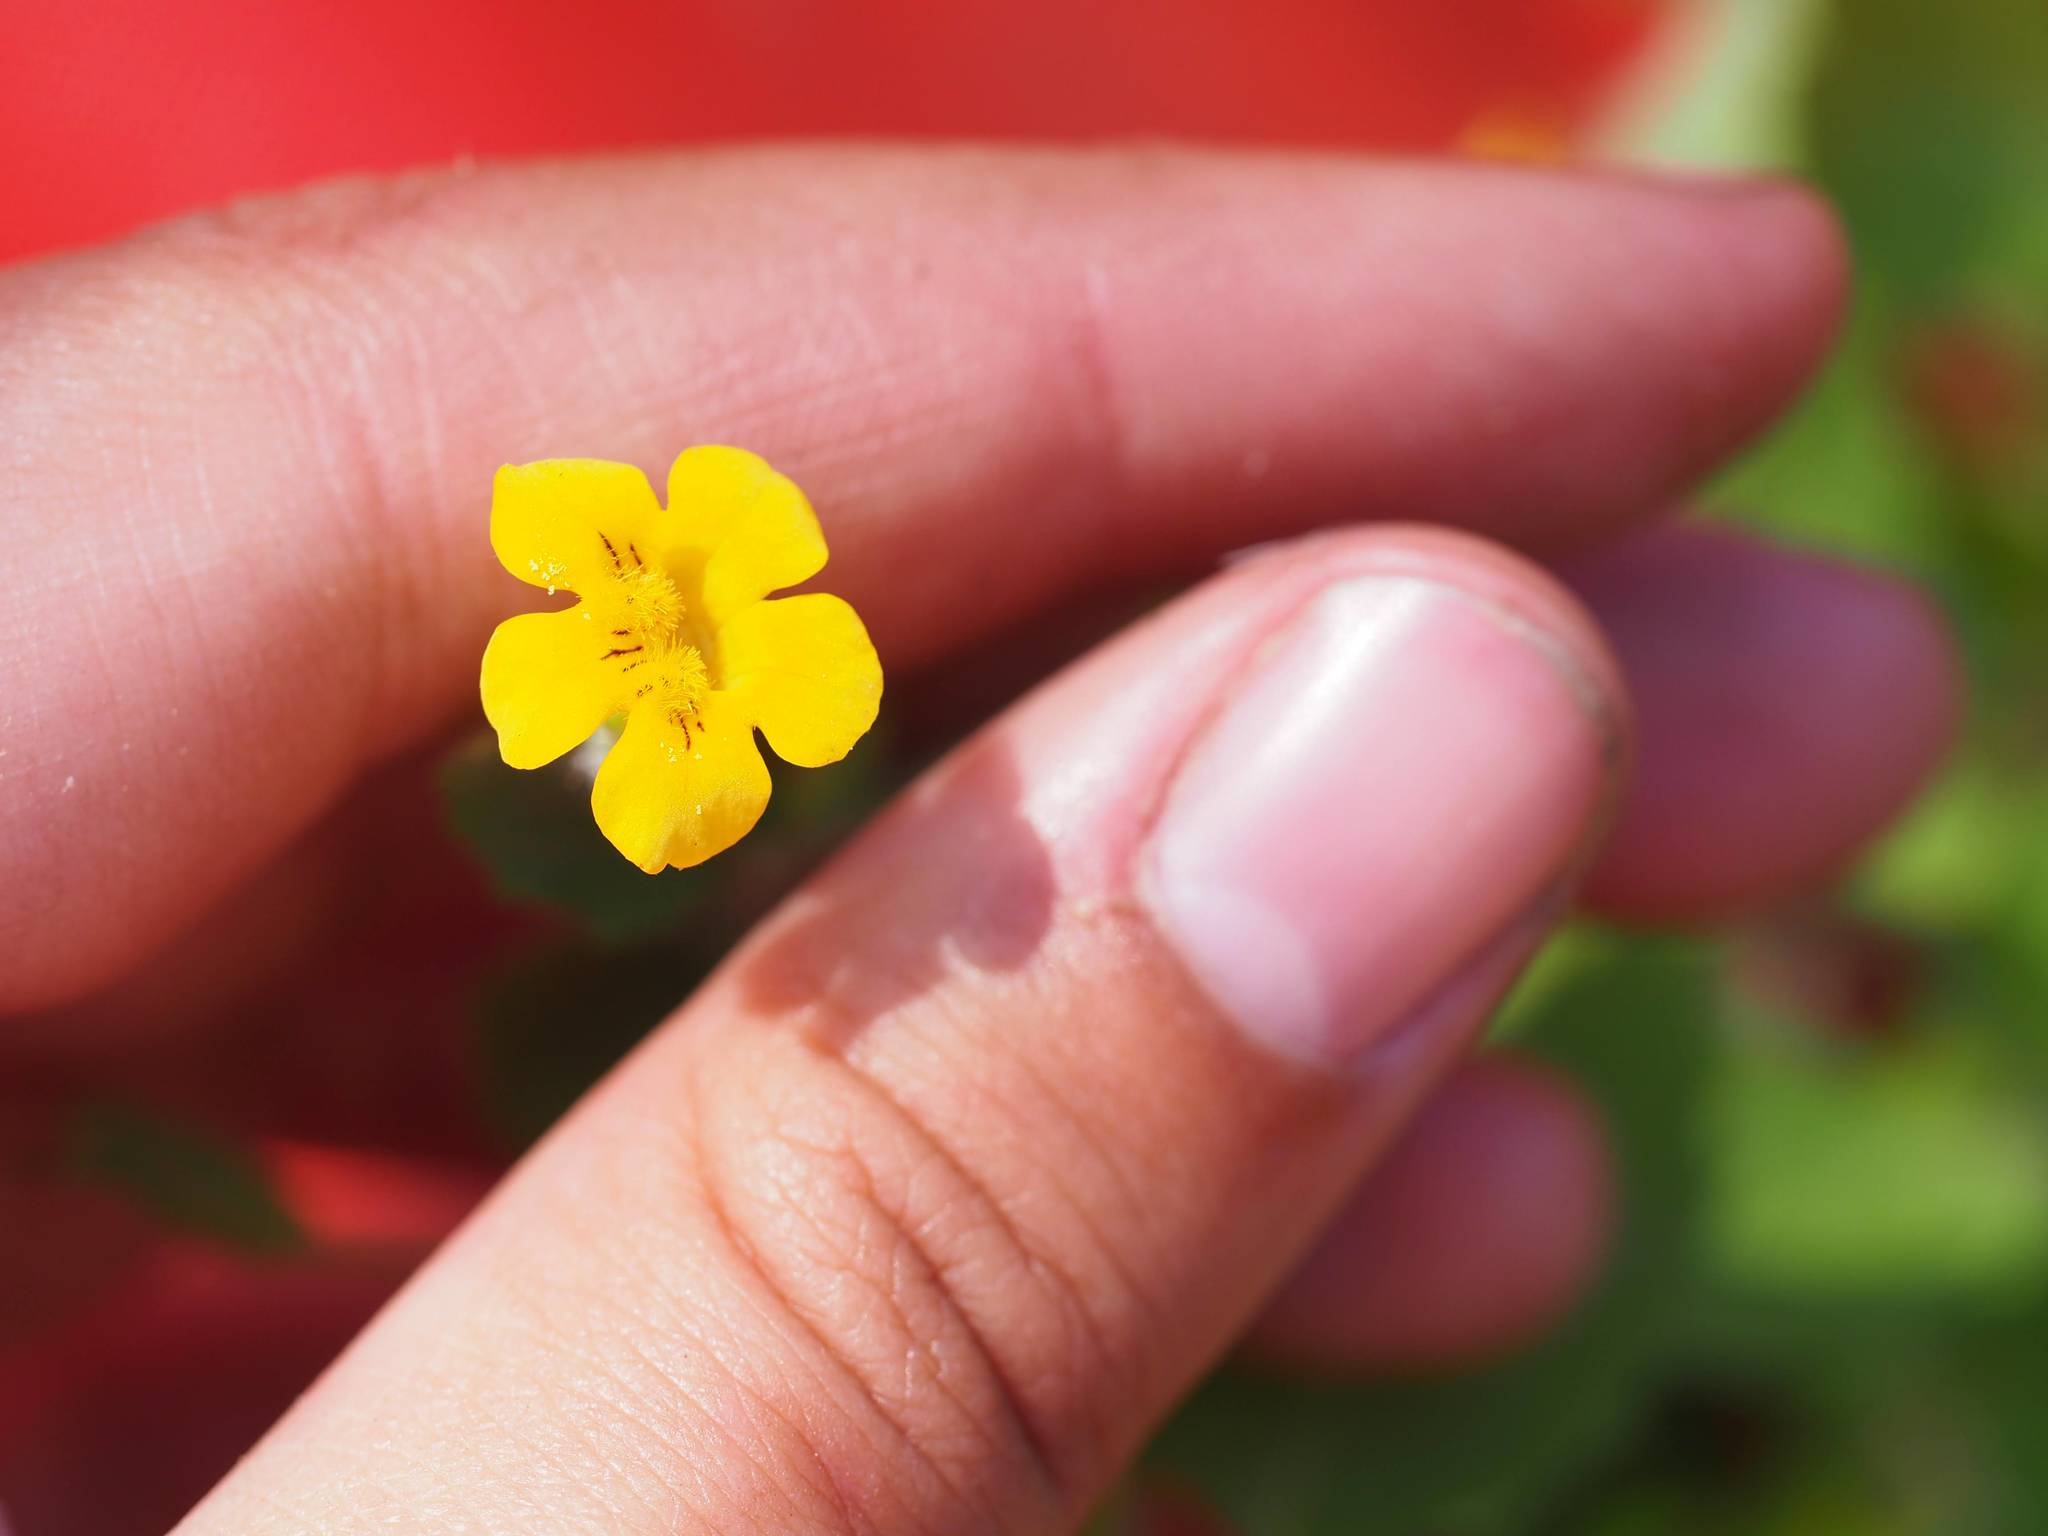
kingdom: Plantae
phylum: Tracheophyta
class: Magnoliopsida
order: Lamiales
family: Phrymaceae
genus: Erythranthe
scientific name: Erythranthe moschata
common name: Muskflower
